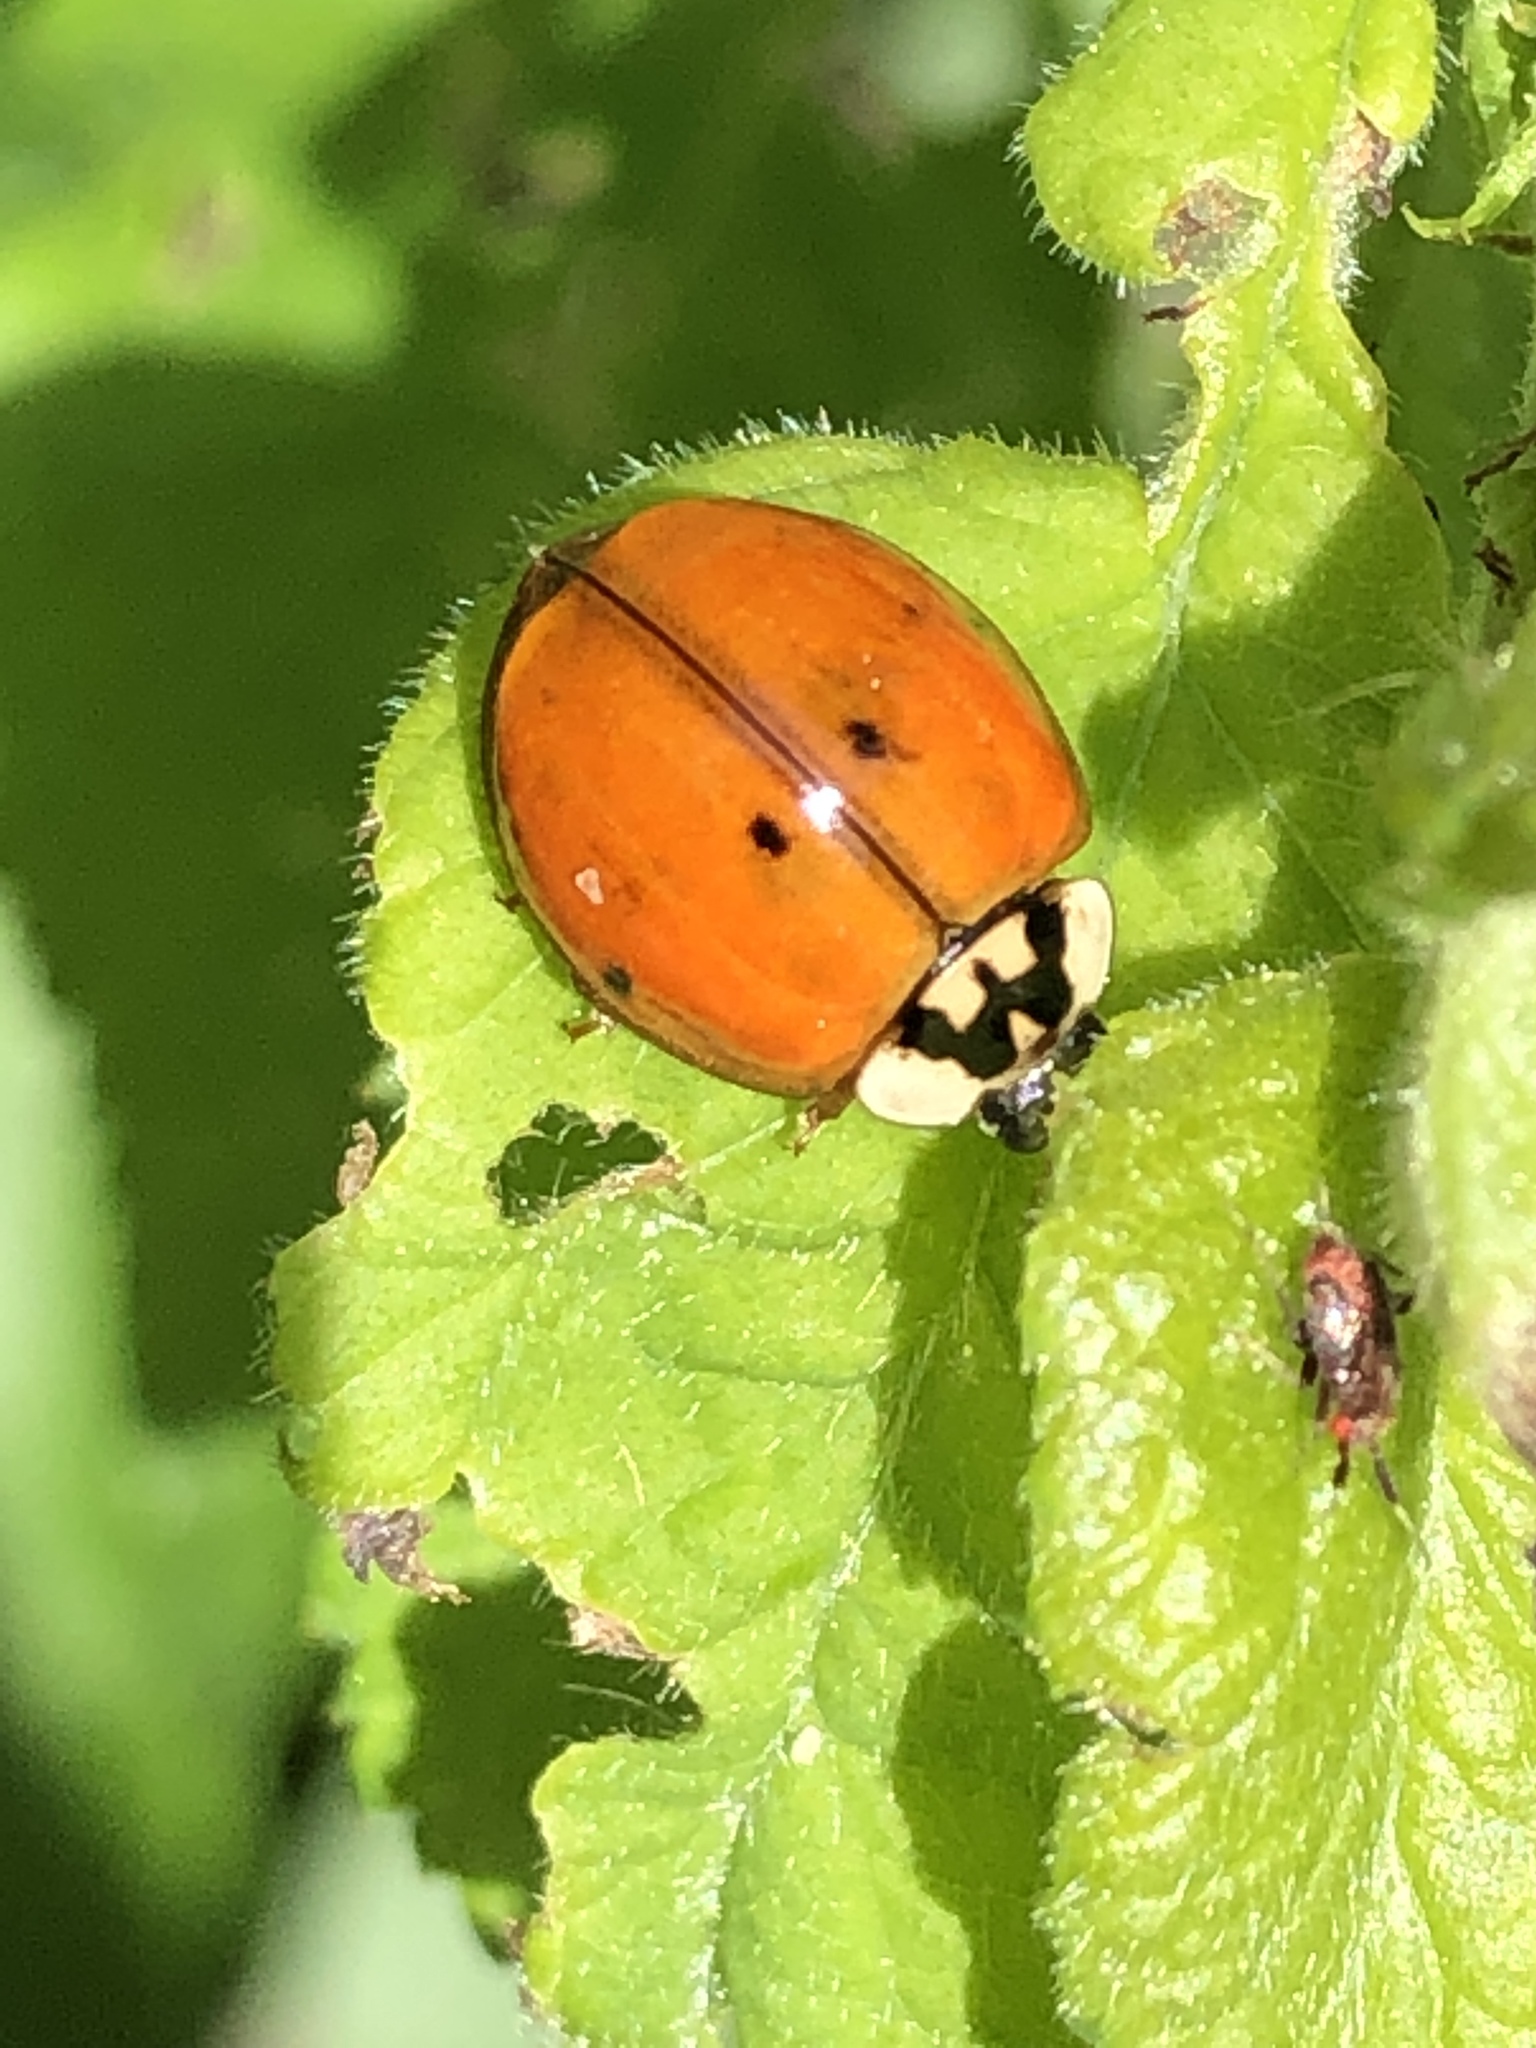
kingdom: Animalia
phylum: Arthropoda
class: Insecta
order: Coleoptera
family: Coccinellidae
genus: Harmonia
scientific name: Harmonia axyridis
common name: Harlequin ladybird
